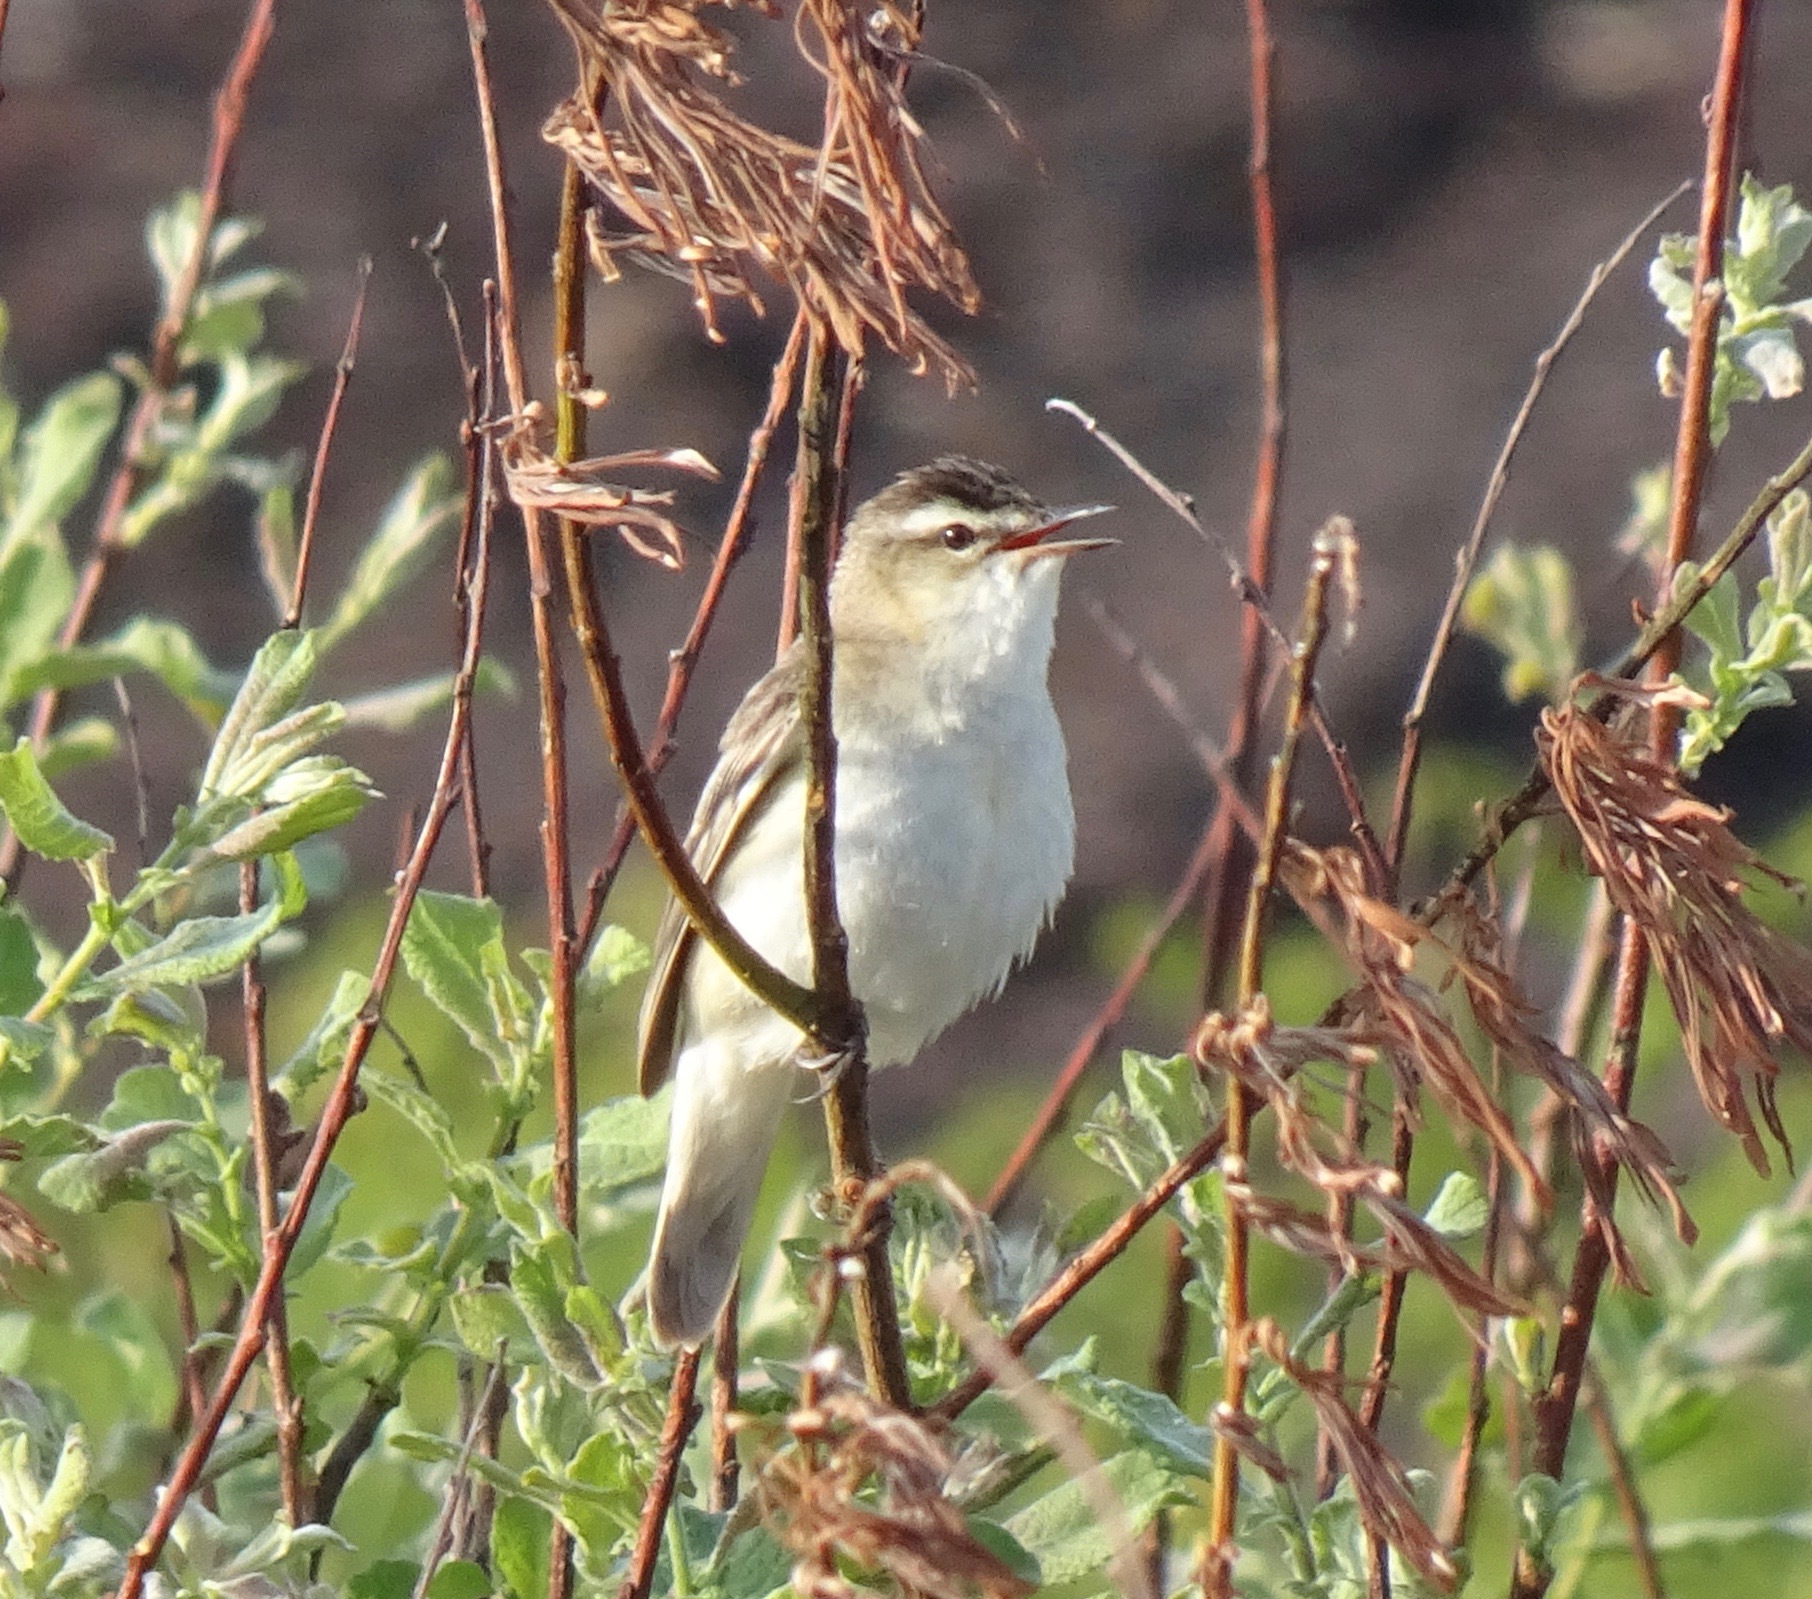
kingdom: Animalia
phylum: Chordata
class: Aves
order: Passeriformes
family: Acrocephalidae
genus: Acrocephalus
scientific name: Acrocephalus schoenobaenus
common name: Sedge warbler
